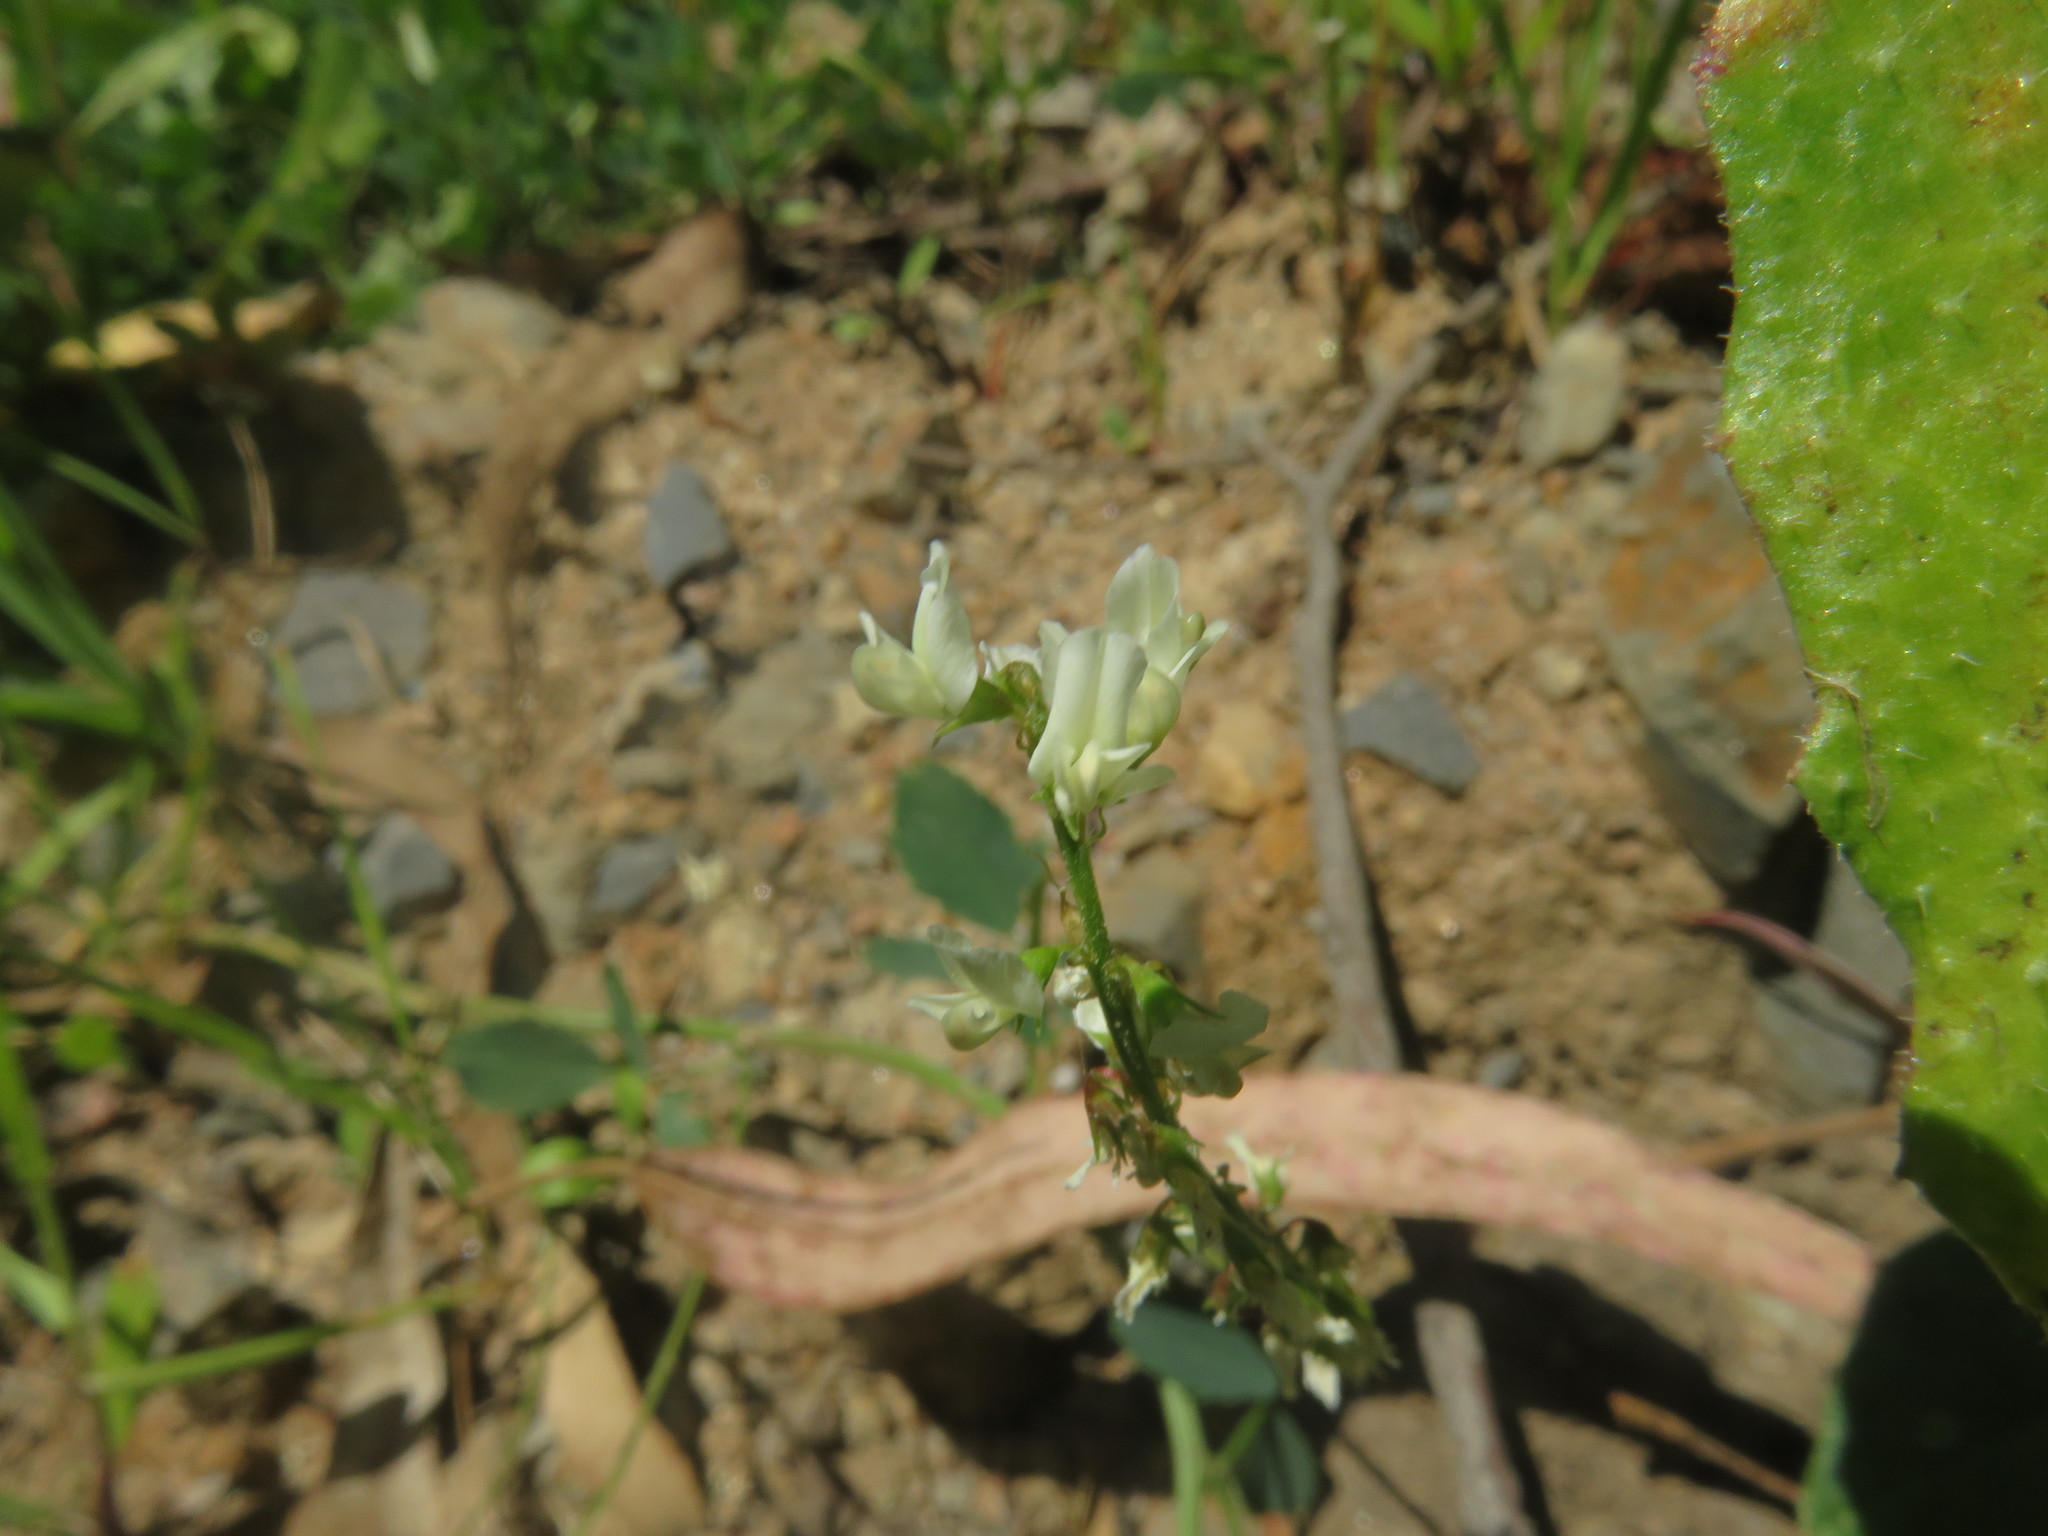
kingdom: Plantae
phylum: Tracheophyta
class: Magnoliopsida
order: Fabales
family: Fabaceae
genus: Melilotus
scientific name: Melilotus albus
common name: White melilot
